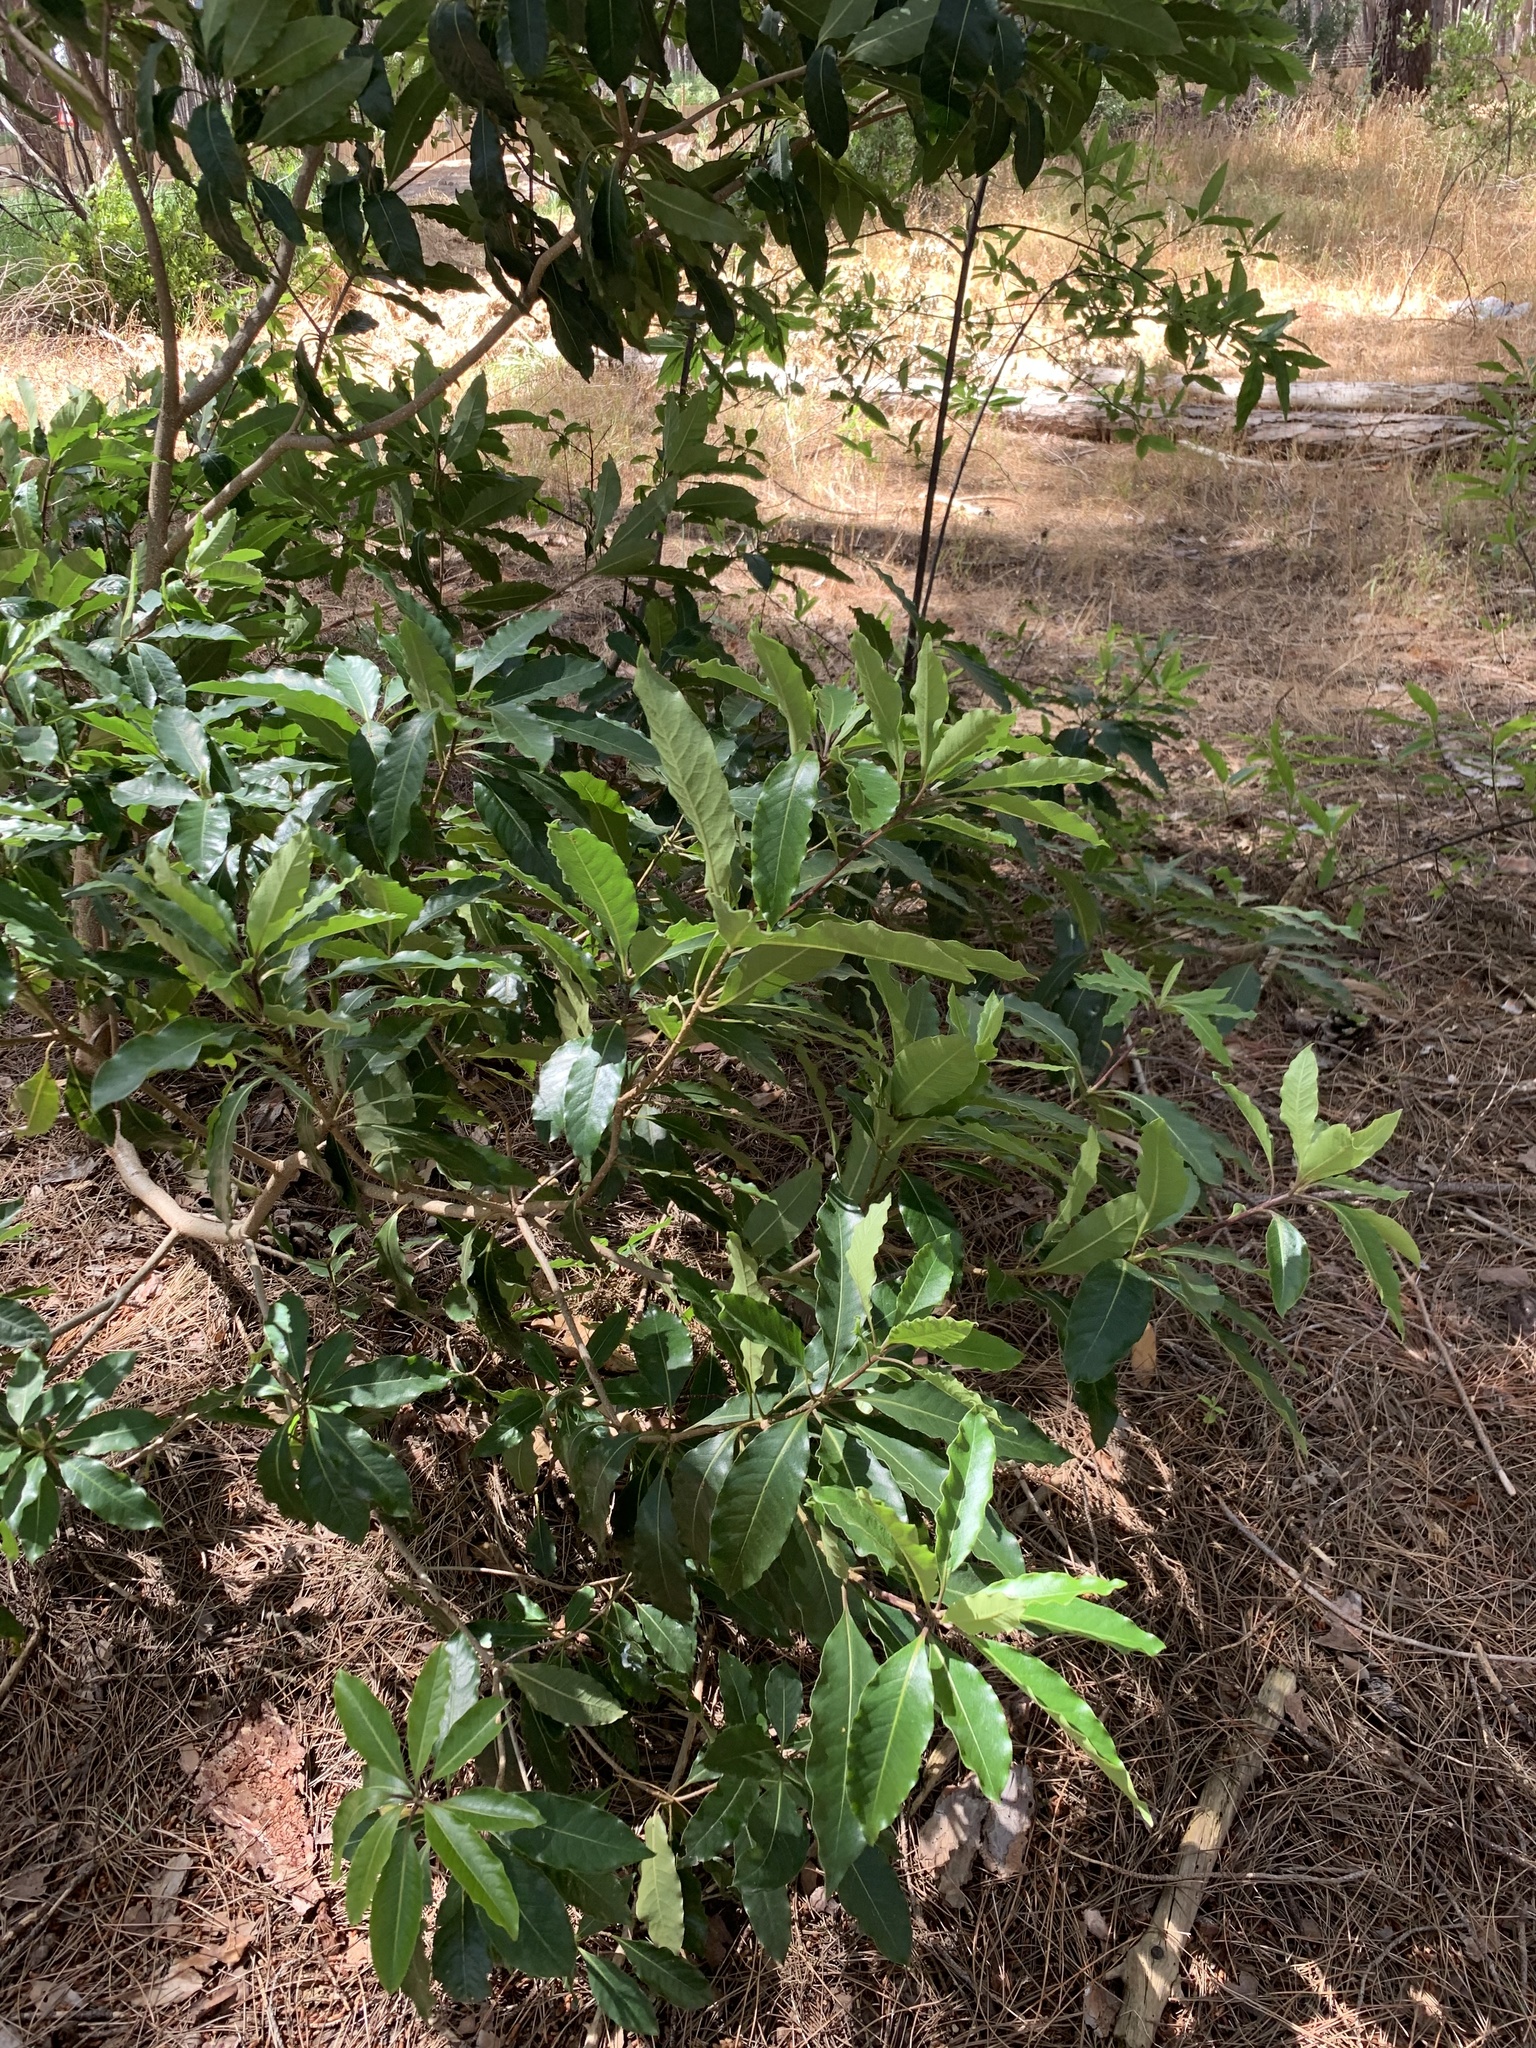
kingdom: Plantae
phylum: Tracheophyta
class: Magnoliopsida
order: Apiales
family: Pittosporaceae
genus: Pittosporum
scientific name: Pittosporum undulatum
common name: Australian cheesewood
